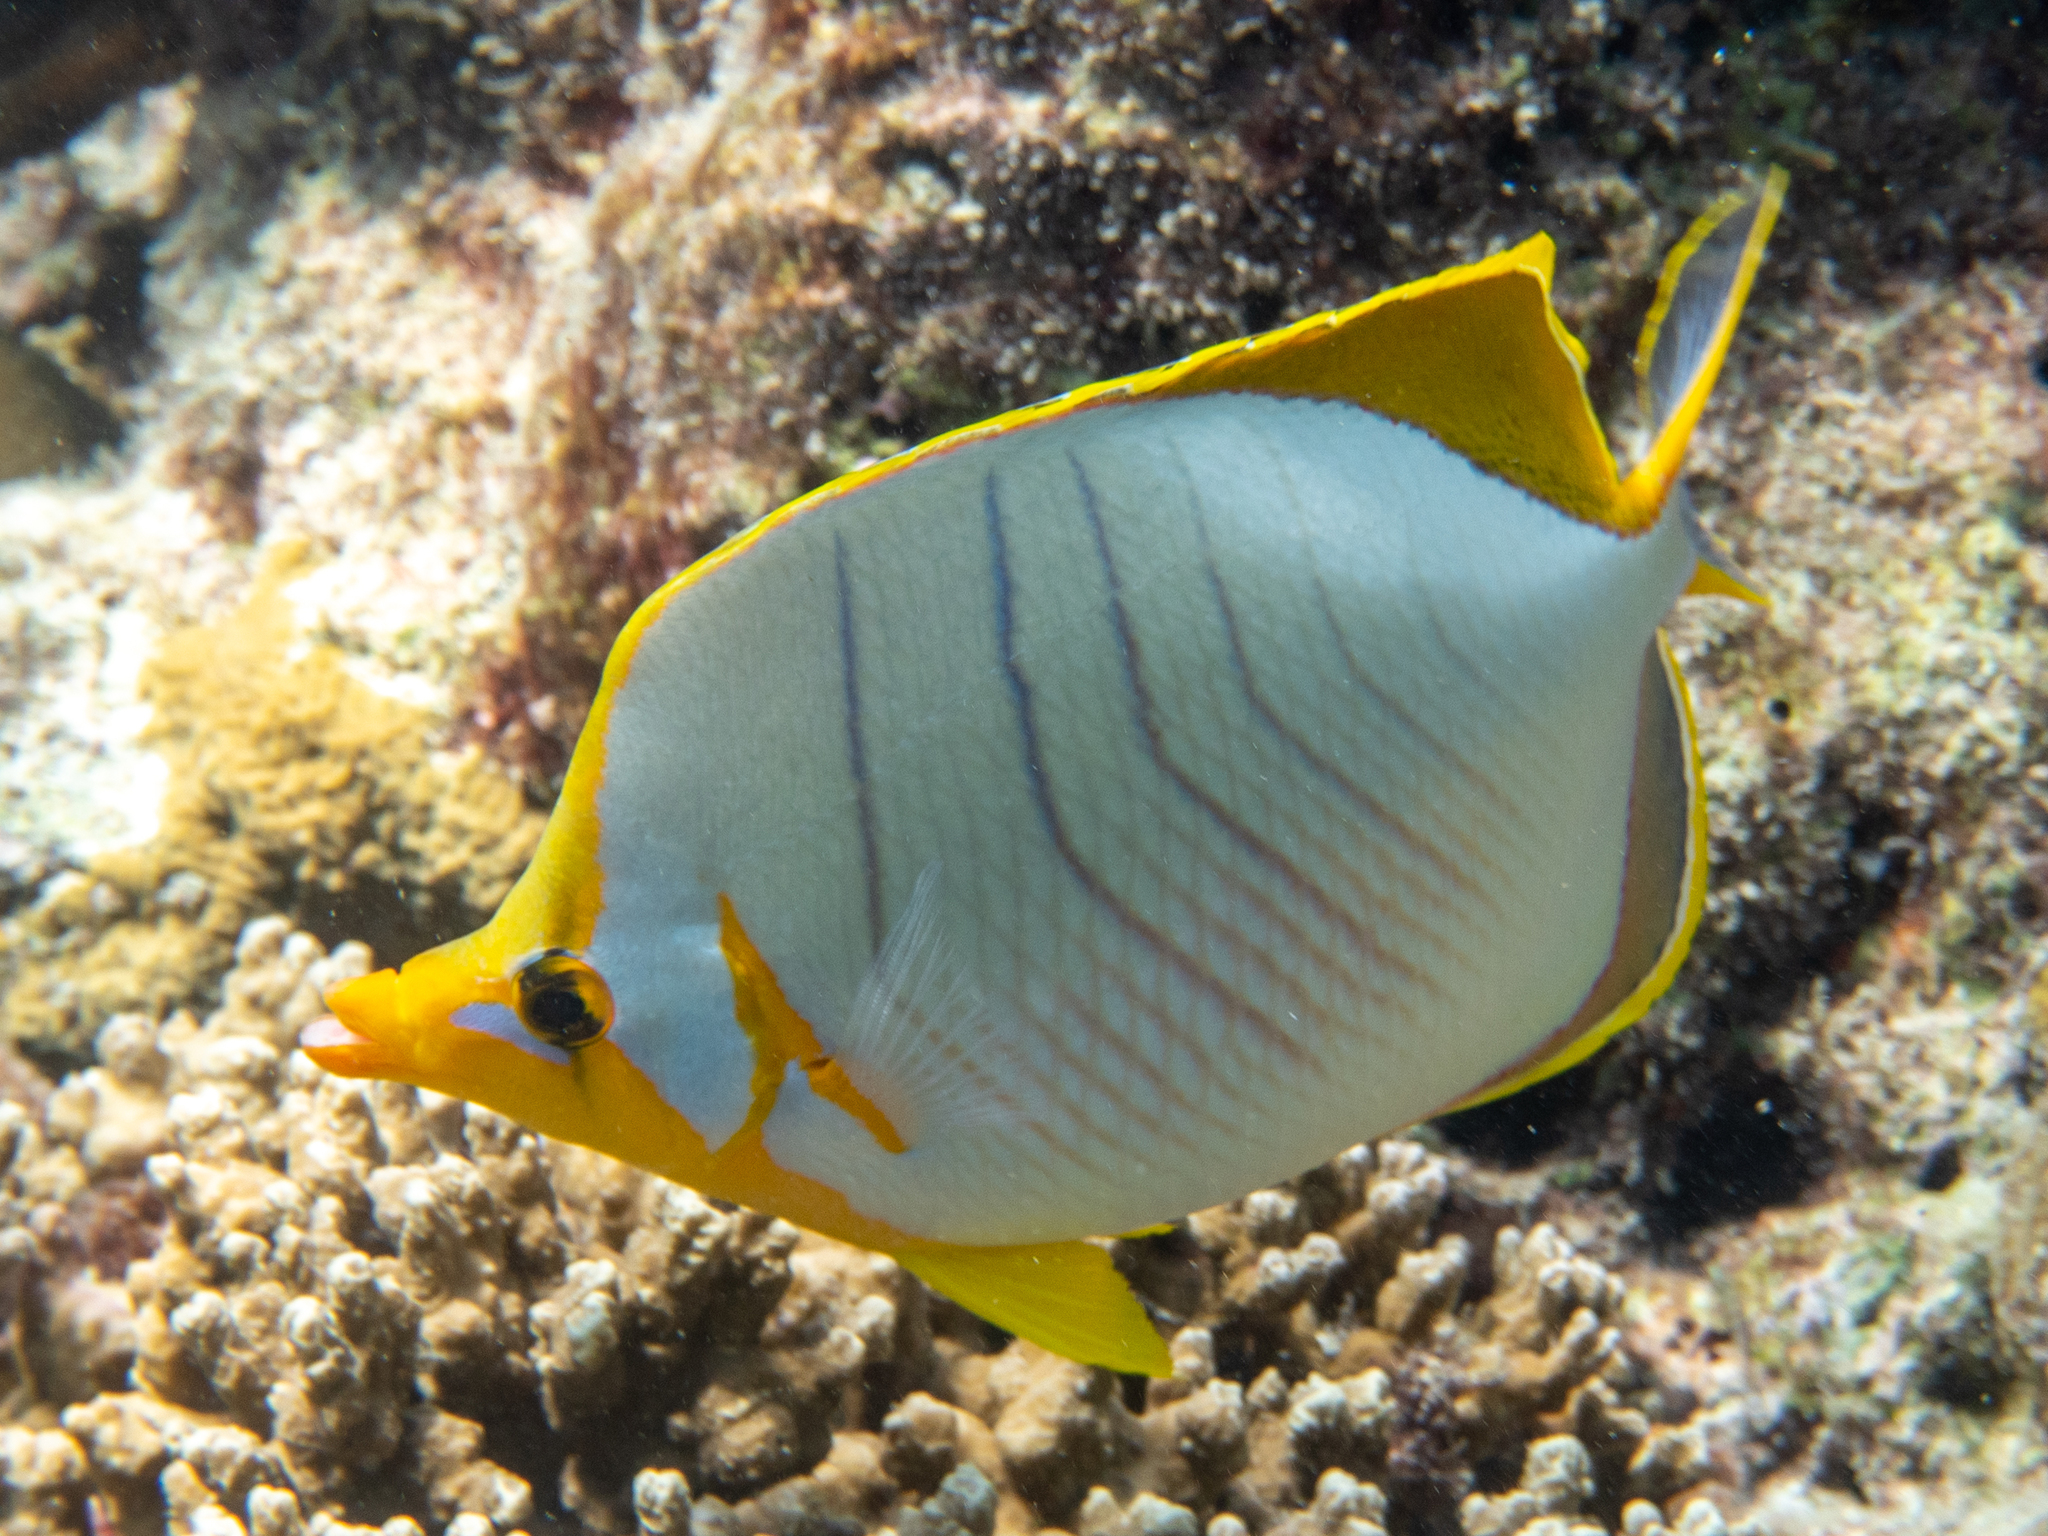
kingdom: Animalia
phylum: Chordata
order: Perciformes
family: Chaetodontidae
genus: Chaetodon
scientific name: Chaetodon xanthocephalus
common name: Yellowhead butterflyfish
